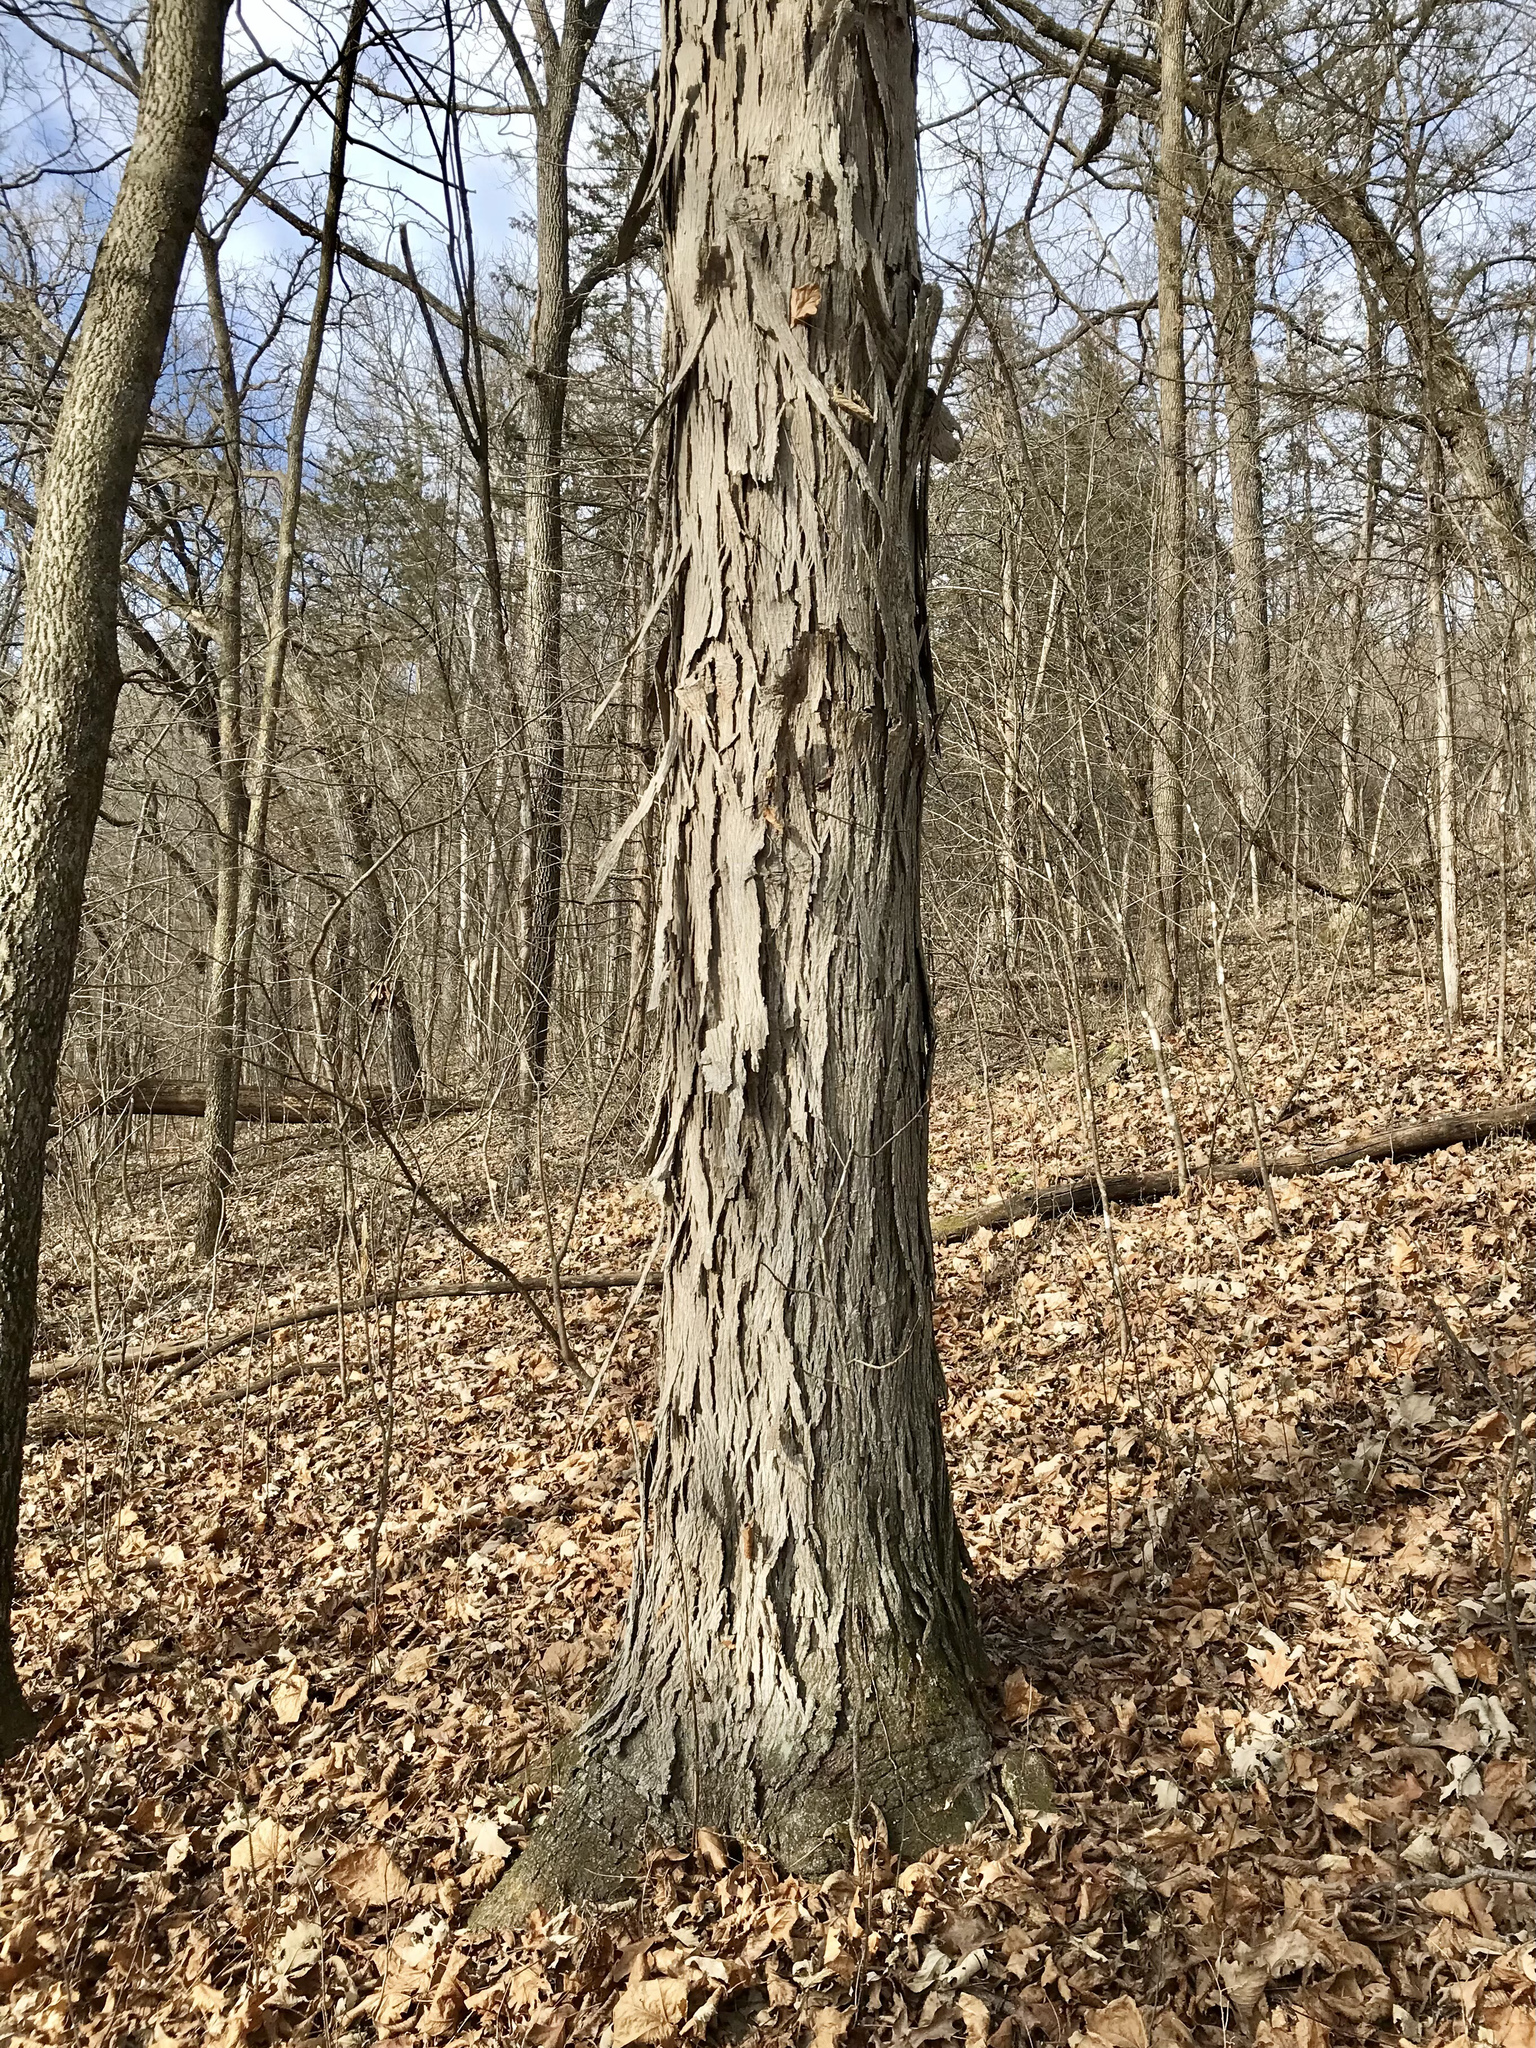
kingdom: Plantae
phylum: Tracheophyta
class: Magnoliopsida
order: Fagales
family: Juglandaceae
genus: Carya
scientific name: Carya ovata
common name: Shagbark hickory
